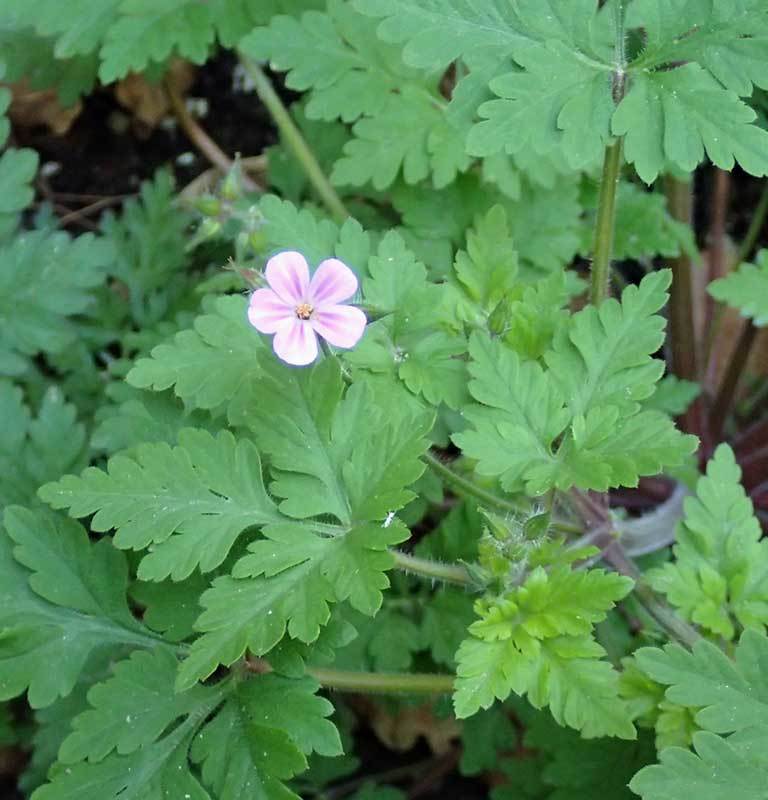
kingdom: Plantae
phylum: Tracheophyta
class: Magnoliopsida
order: Geraniales
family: Geraniaceae
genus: Geranium
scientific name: Geranium robertianum
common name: Herb-robert
